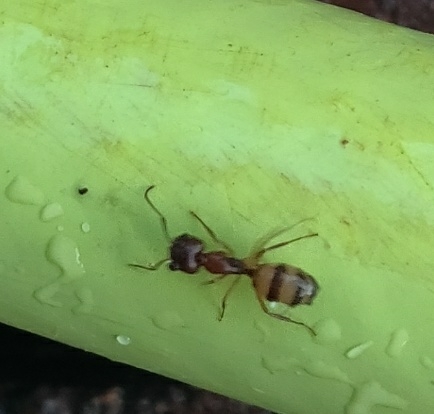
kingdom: Animalia
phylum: Arthropoda
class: Insecta
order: Hymenoptera
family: Formicidae
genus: Camponotus
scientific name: Camponotus subbarbatus
